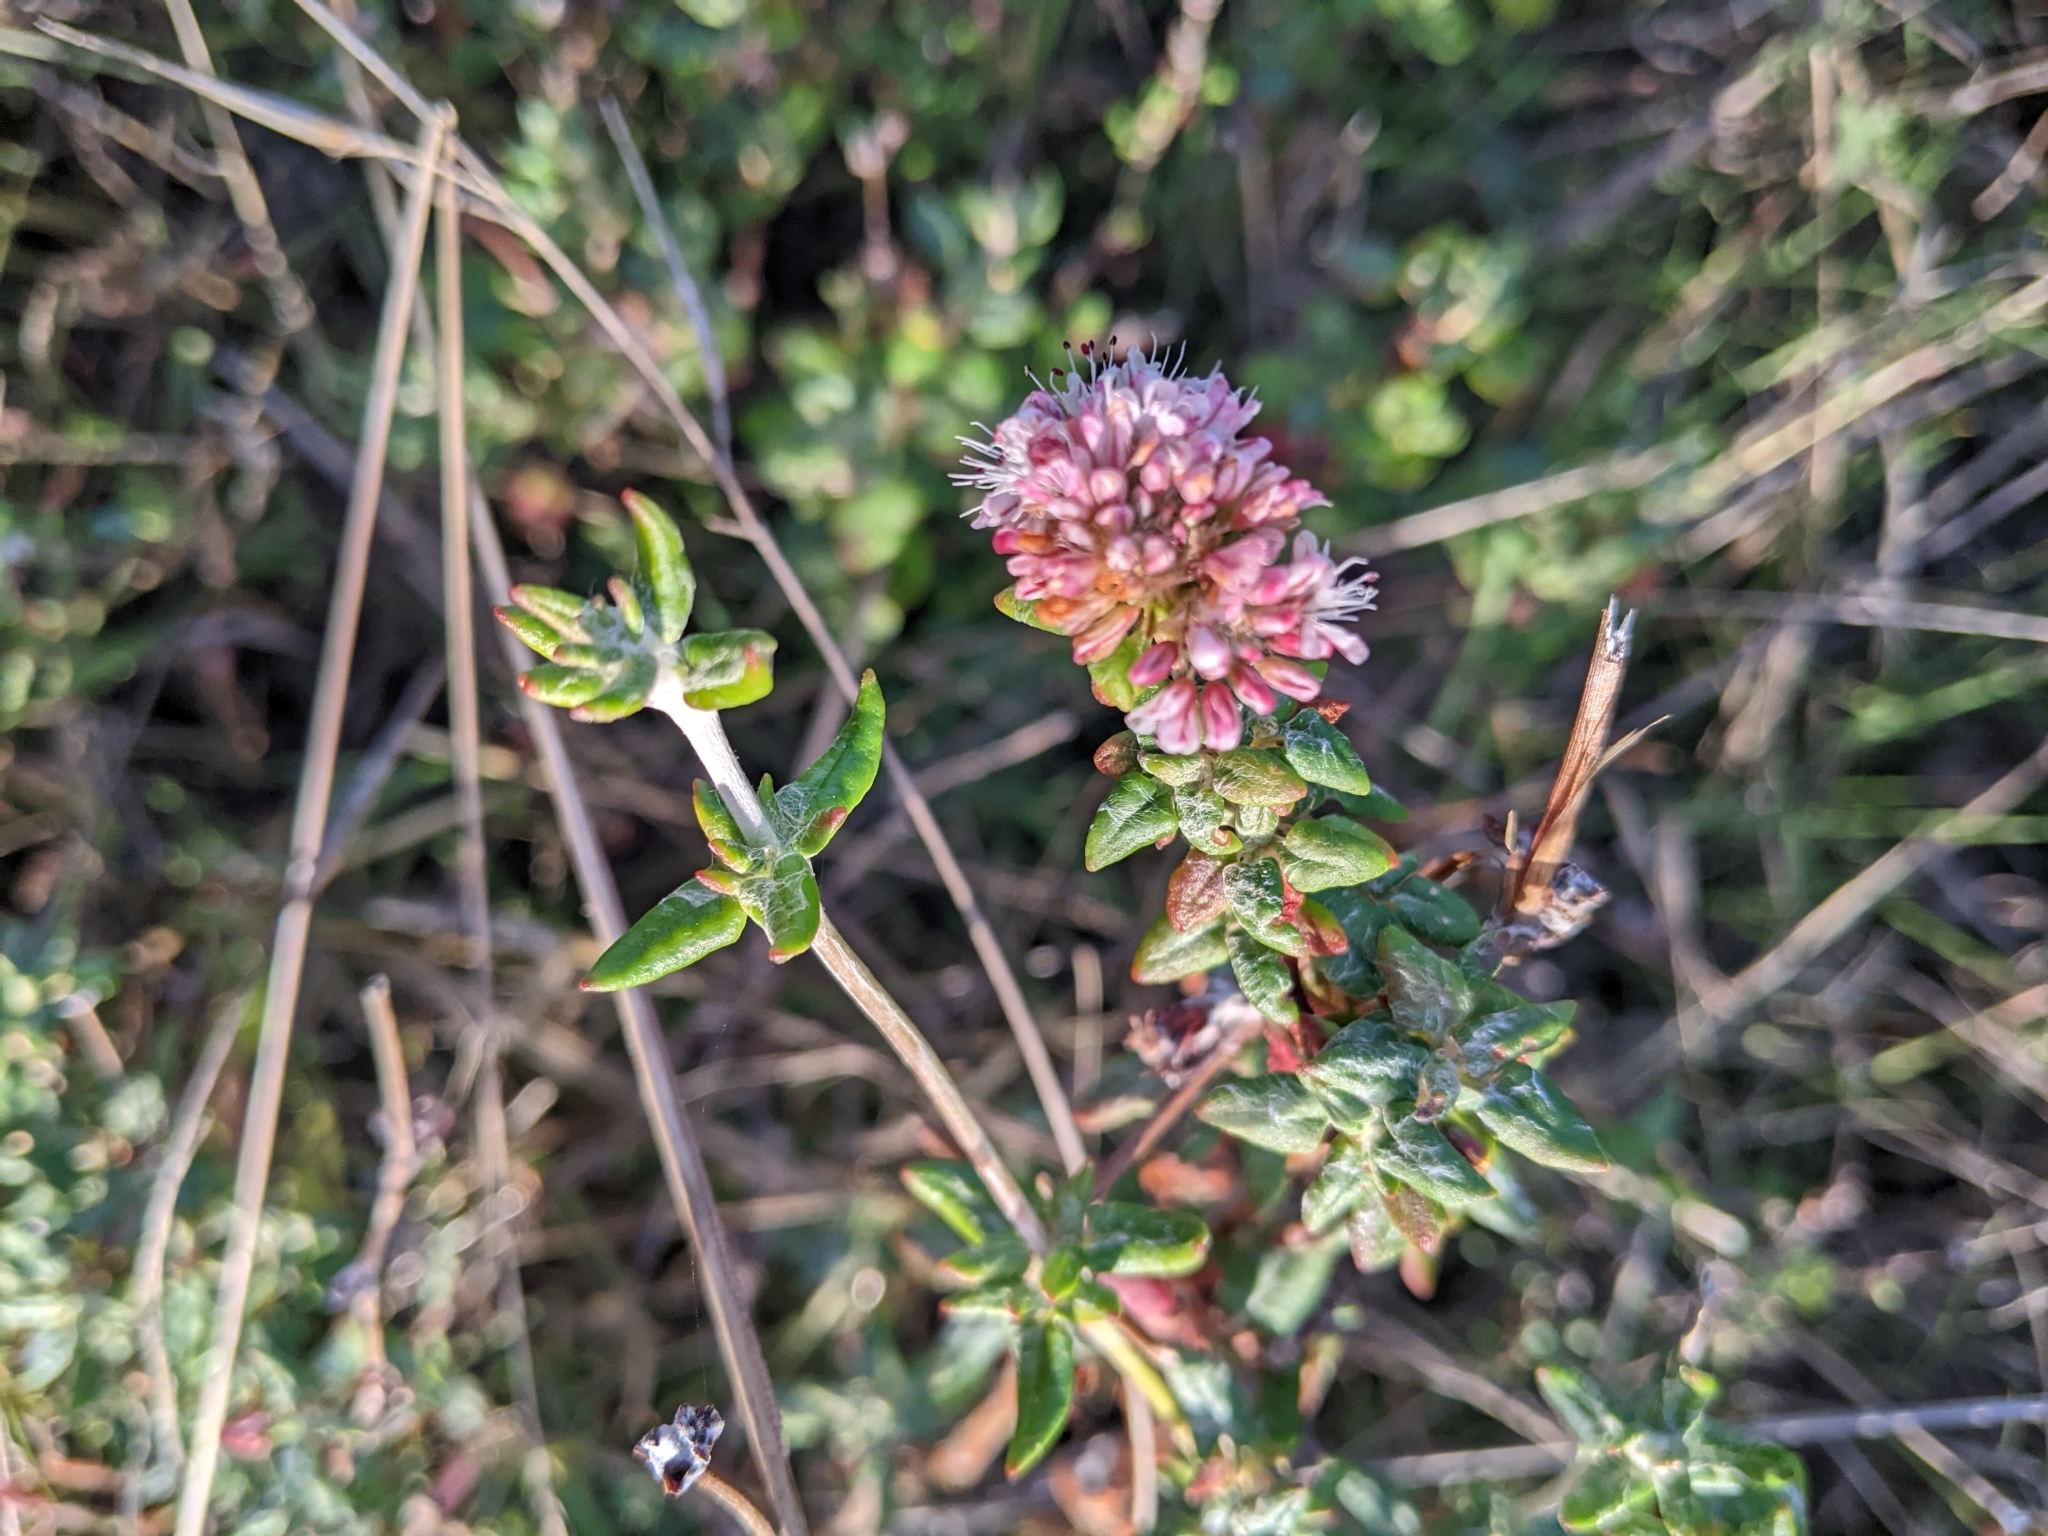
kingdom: Plantae
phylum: Tracheophyta
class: Magnoliopsida
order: Caryophyllales
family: Polygonaceae
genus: Eriogonum
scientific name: Eriogonum parvifolium
